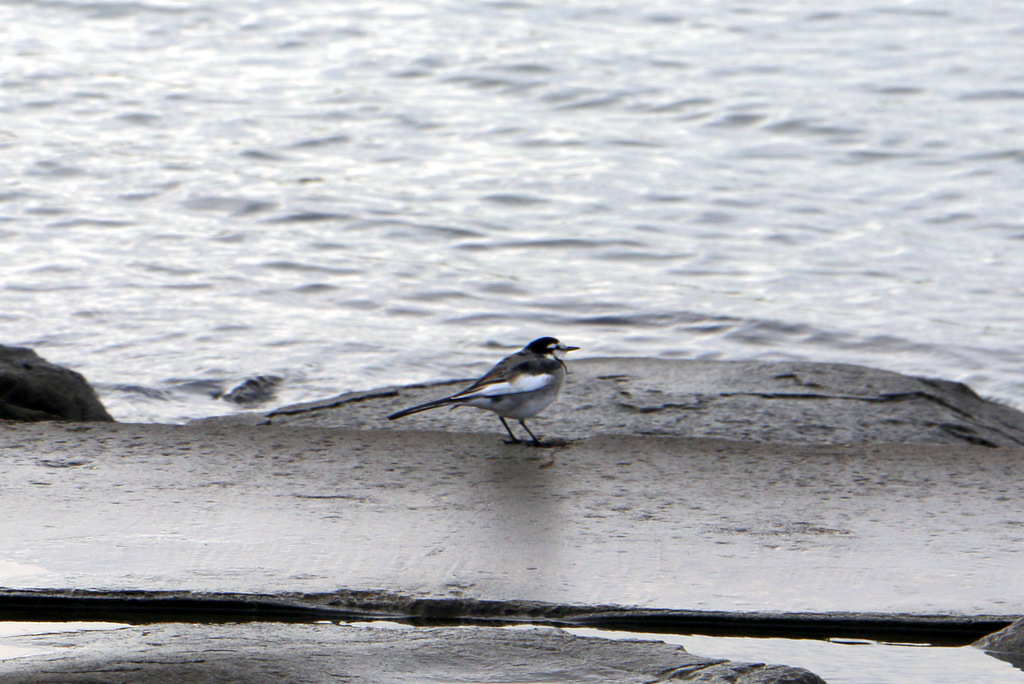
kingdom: Animalia
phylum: Chordata
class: Aves
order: Passeriformes
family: Motacillidae
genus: Motacilla
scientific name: Motacilla alba
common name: White wagtail
